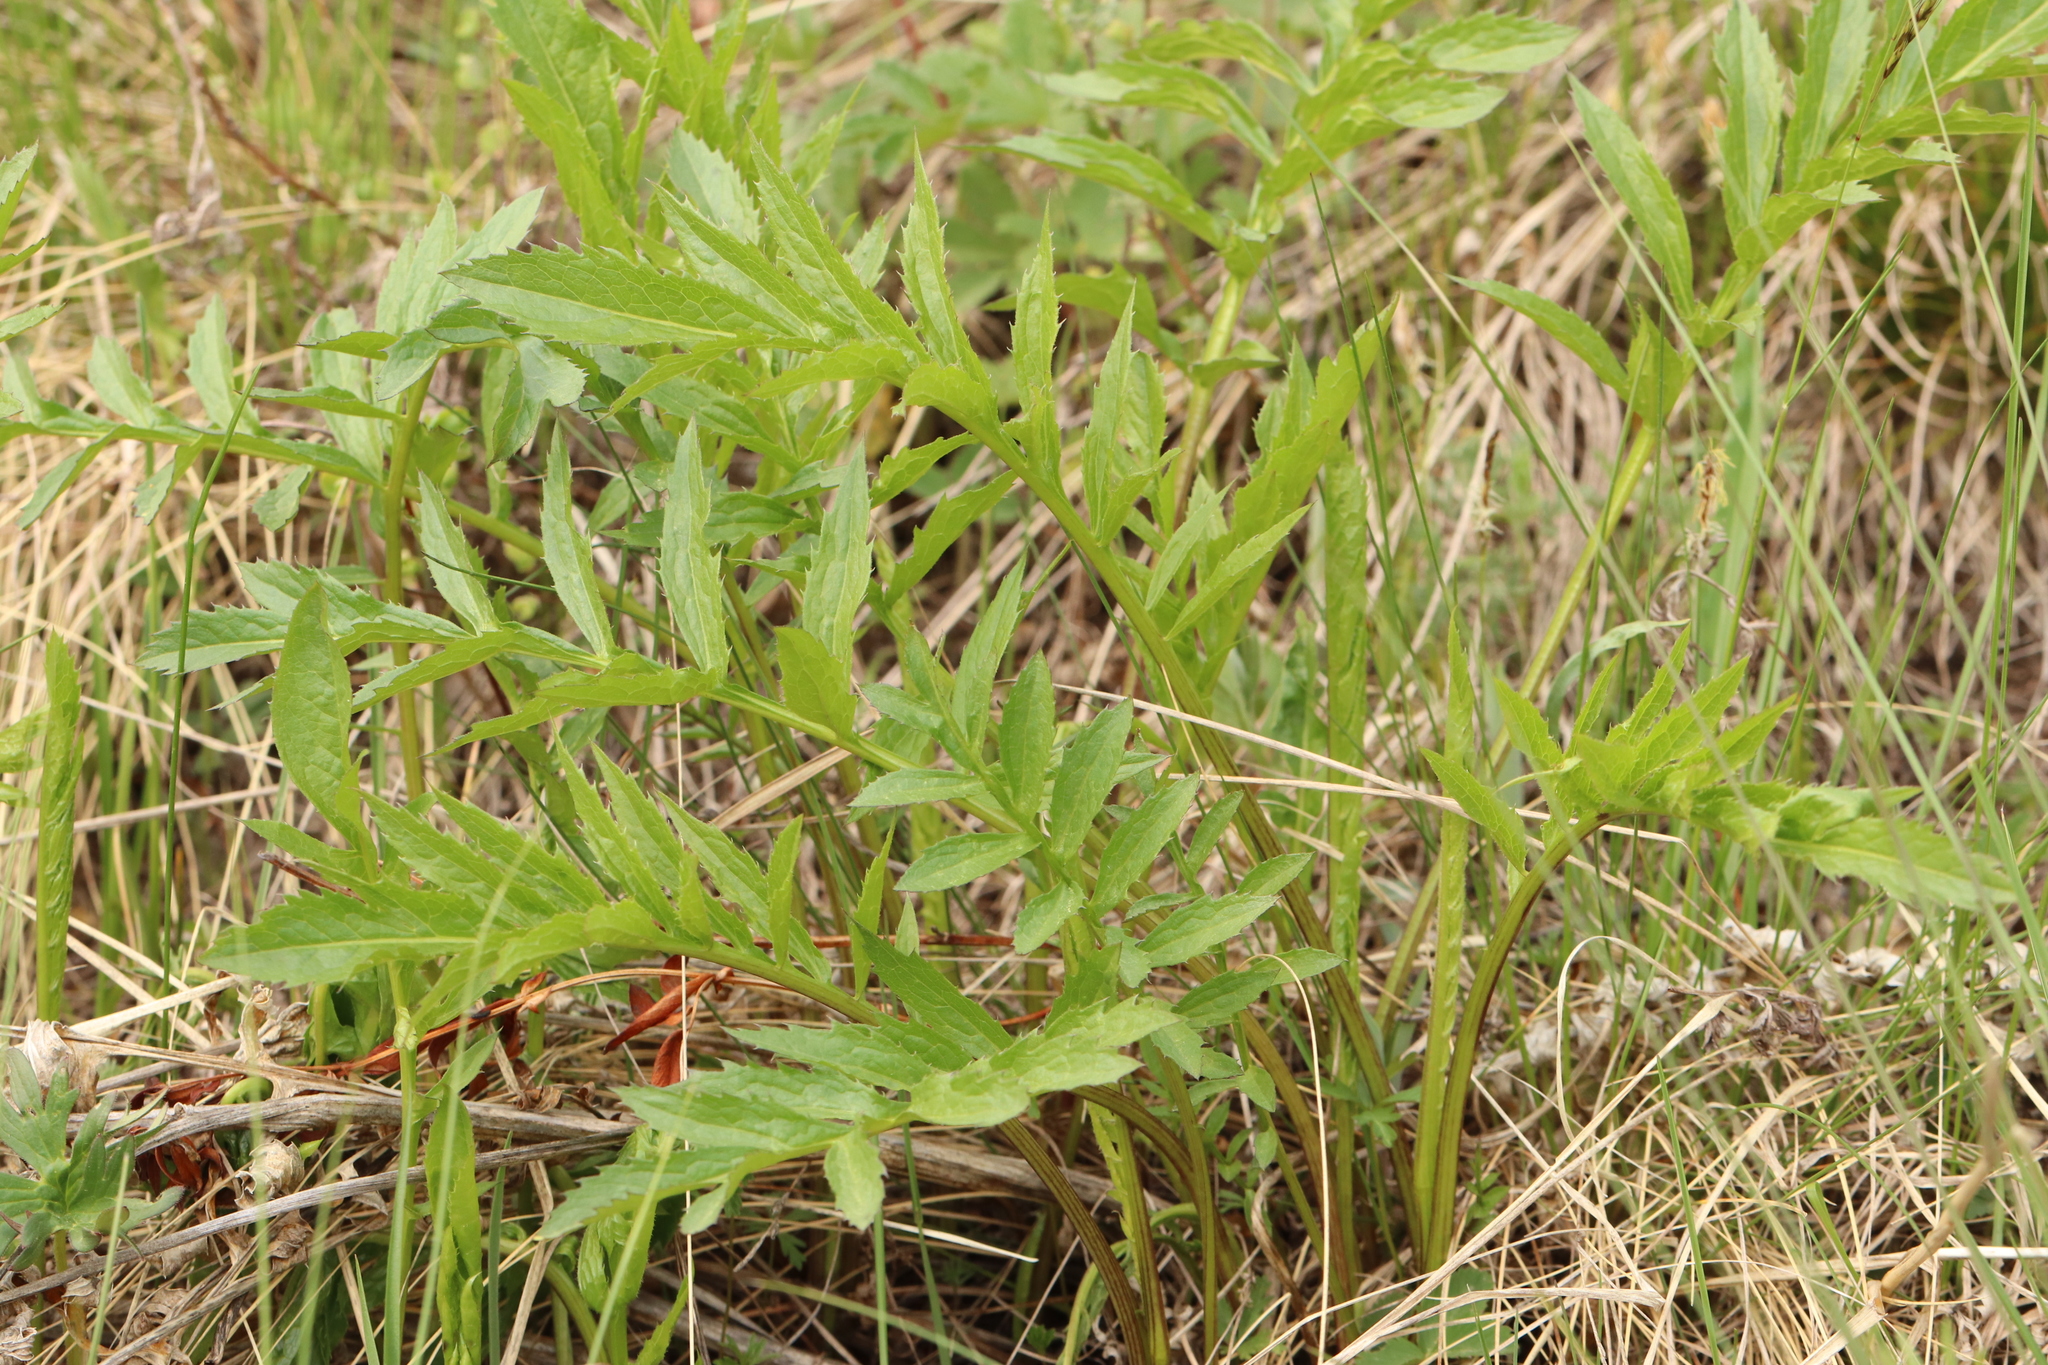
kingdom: Plantae
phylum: Tracheophyta
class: Magnoliopsida
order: Asterales
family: Asteraceae
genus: Serratula
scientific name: Serratula coronata
